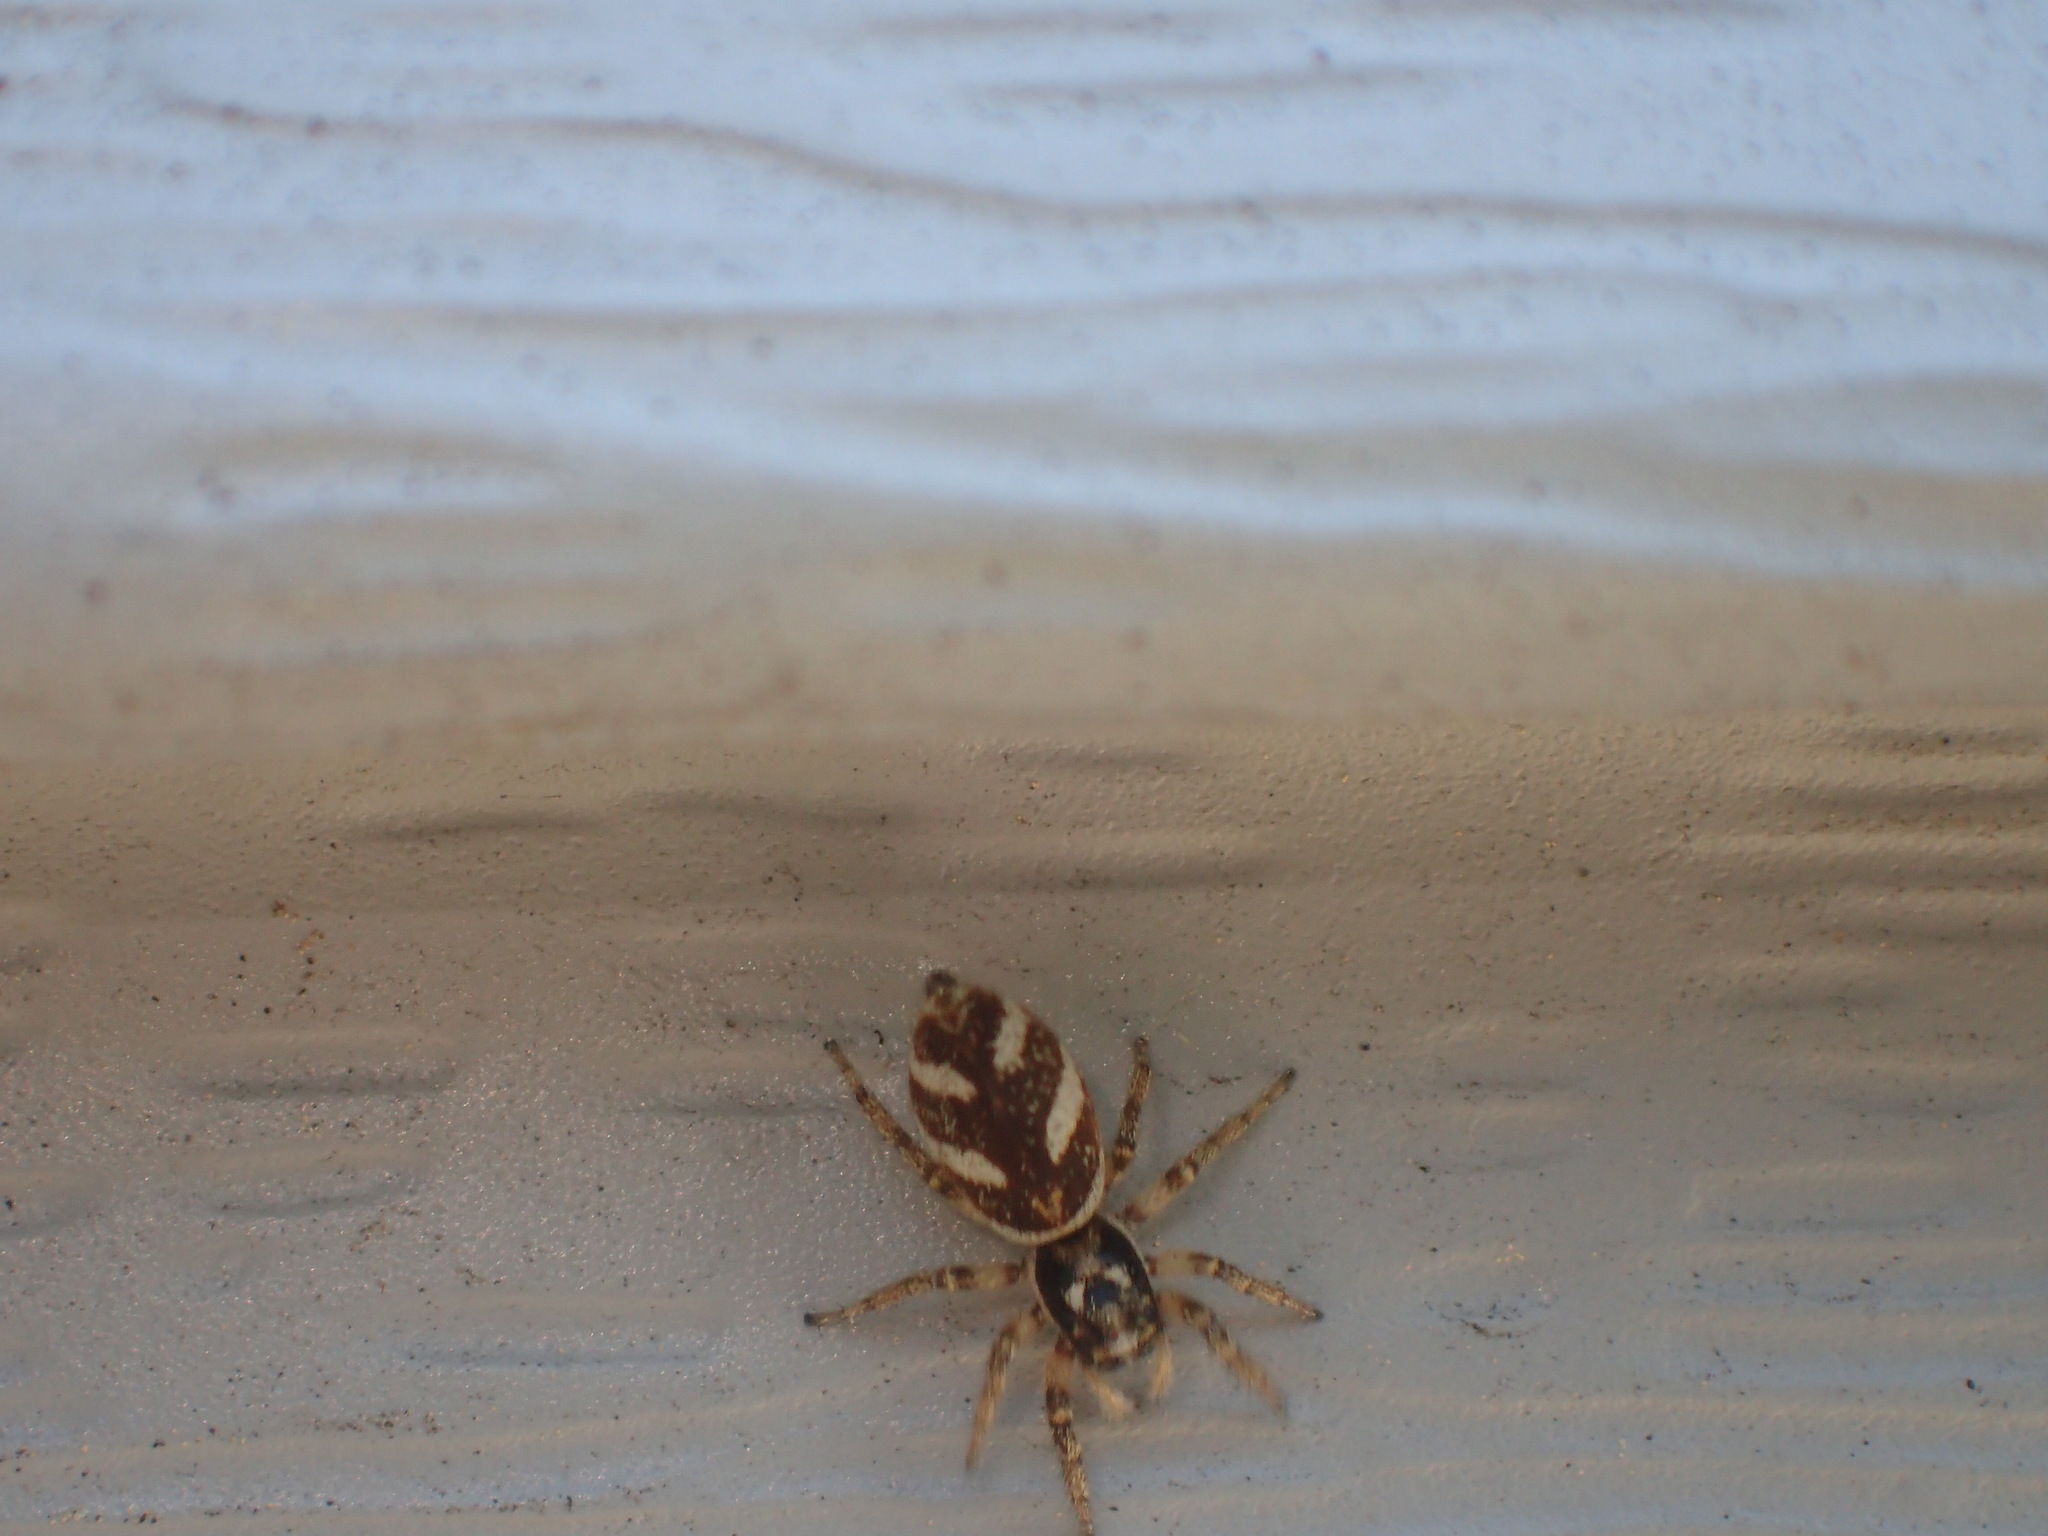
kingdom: Animalia
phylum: Arthropoda
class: Arachnida
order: Araneae
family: Salticidae
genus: Salticus
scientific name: Salticus scenicus
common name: Zebra jumper
